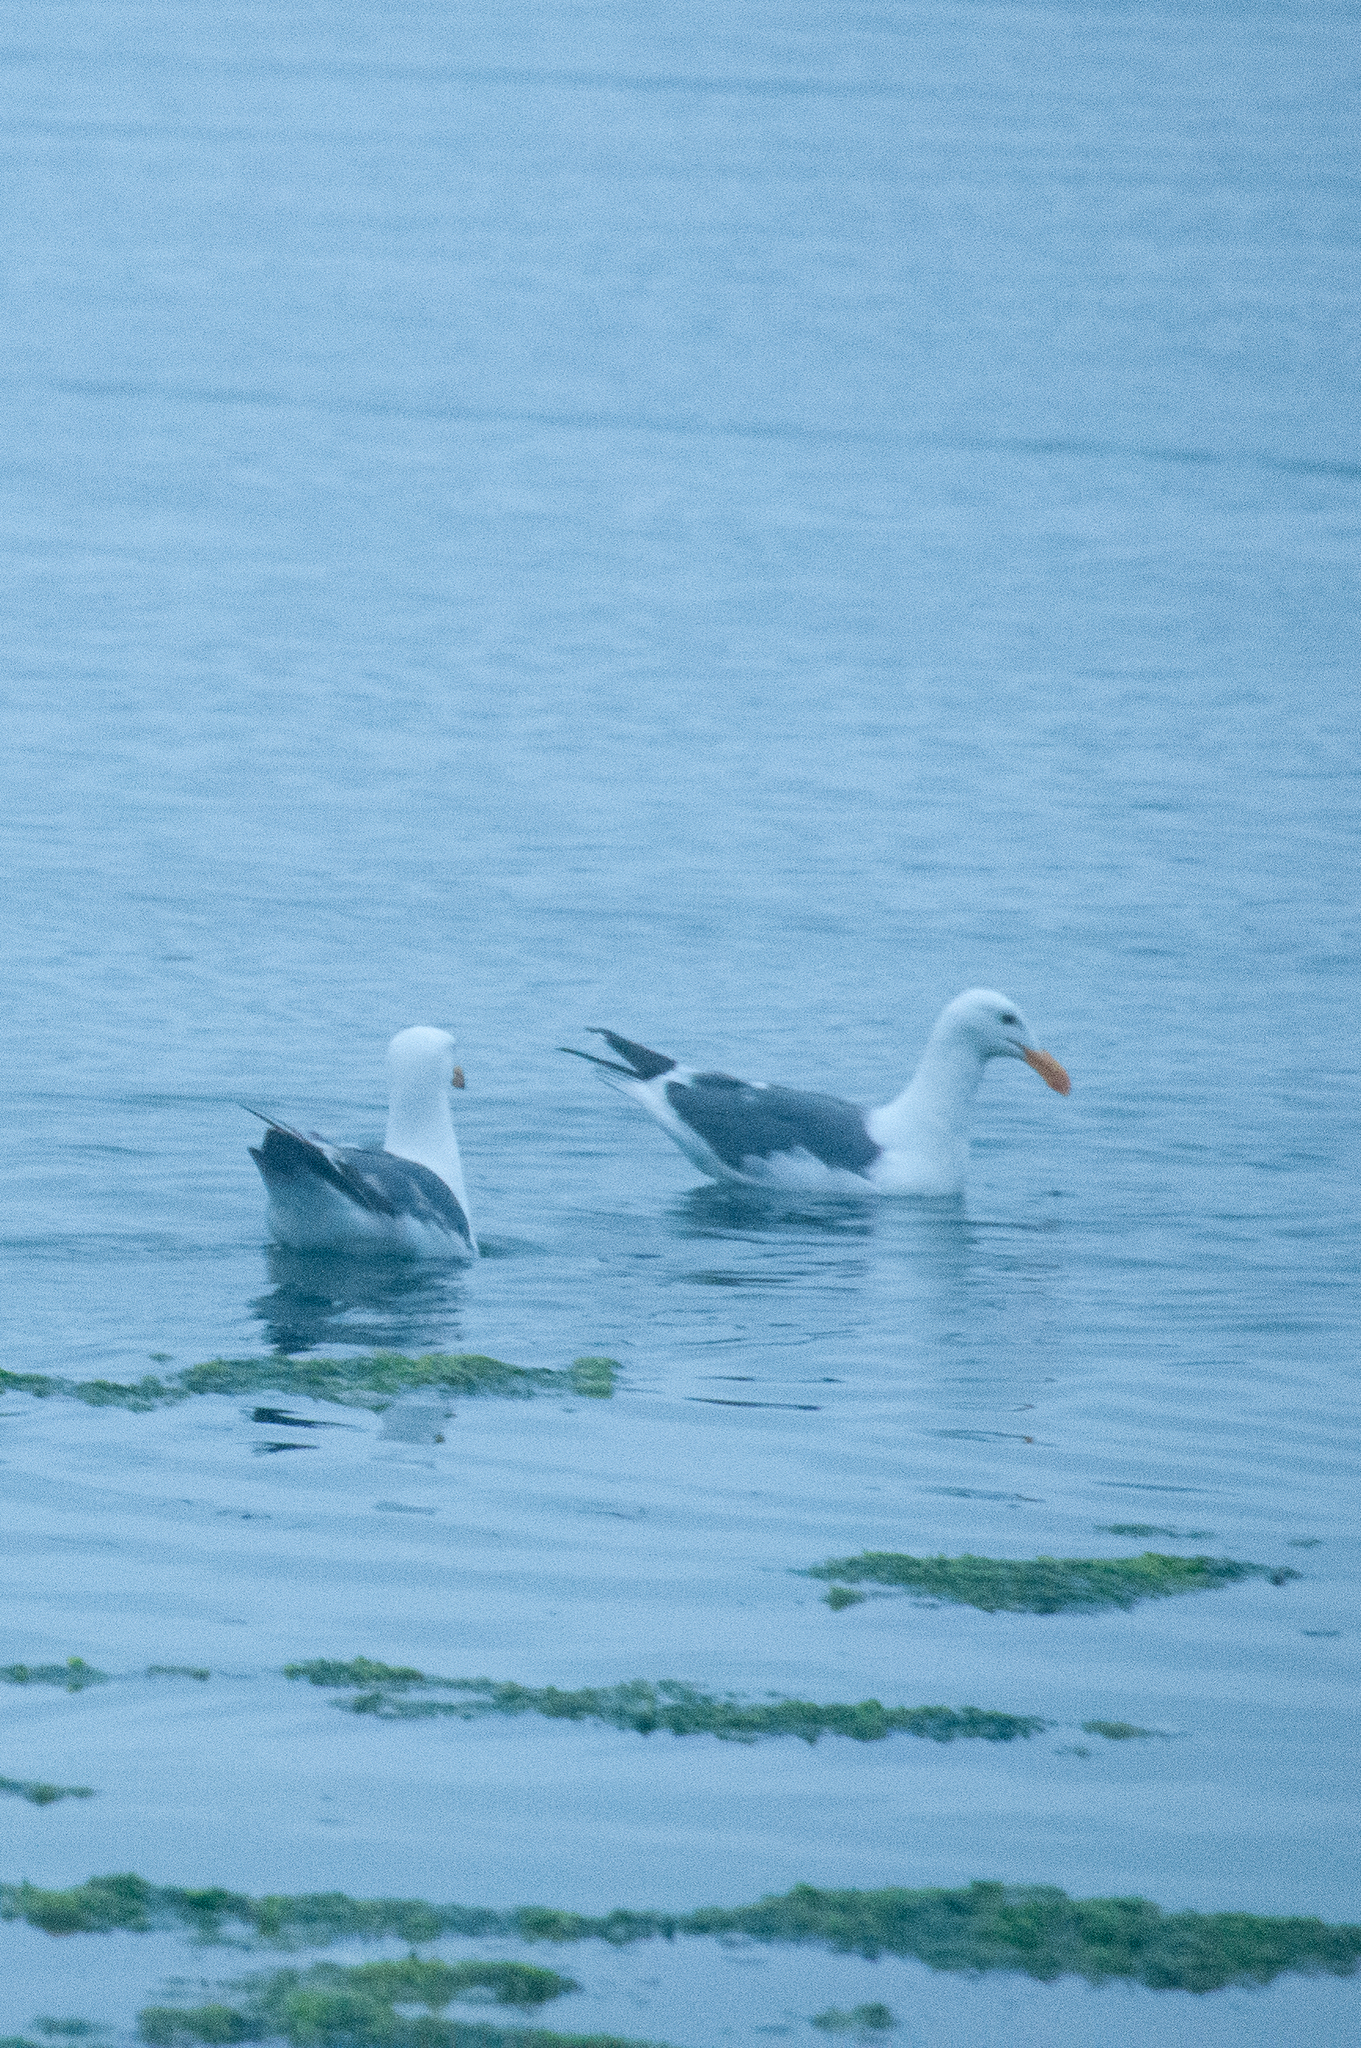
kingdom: Animalia
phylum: Chordata
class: Aves
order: Charadriiformes
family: Laridae
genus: Larus
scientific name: Larus occidentalis
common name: Western gull
